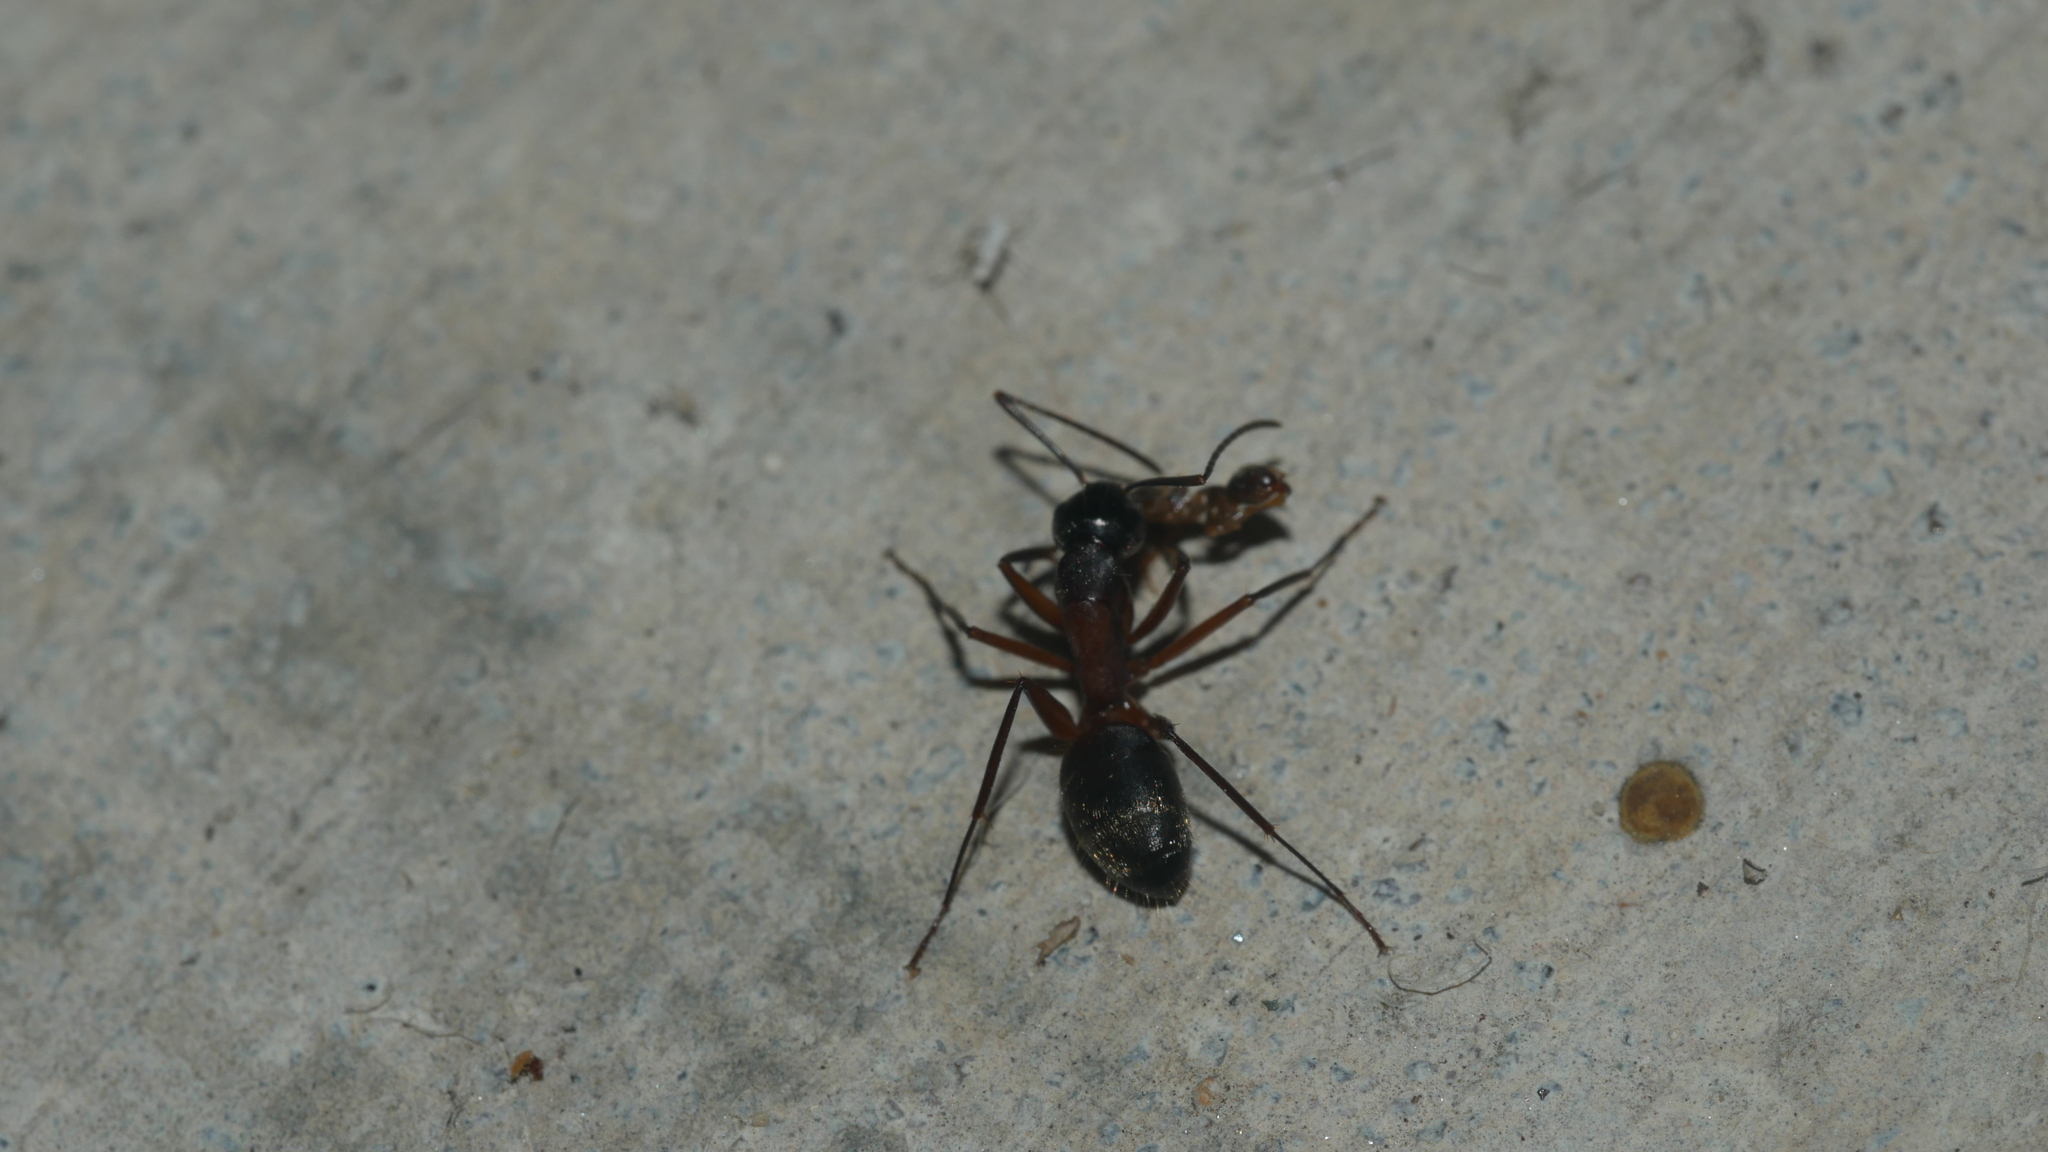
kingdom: Animalia
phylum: Arthropoda
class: Insecta
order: Hymenoptera
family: Formicidae
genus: Camponotus
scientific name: Camponotus chromaiodes
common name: Red carpenter ant
